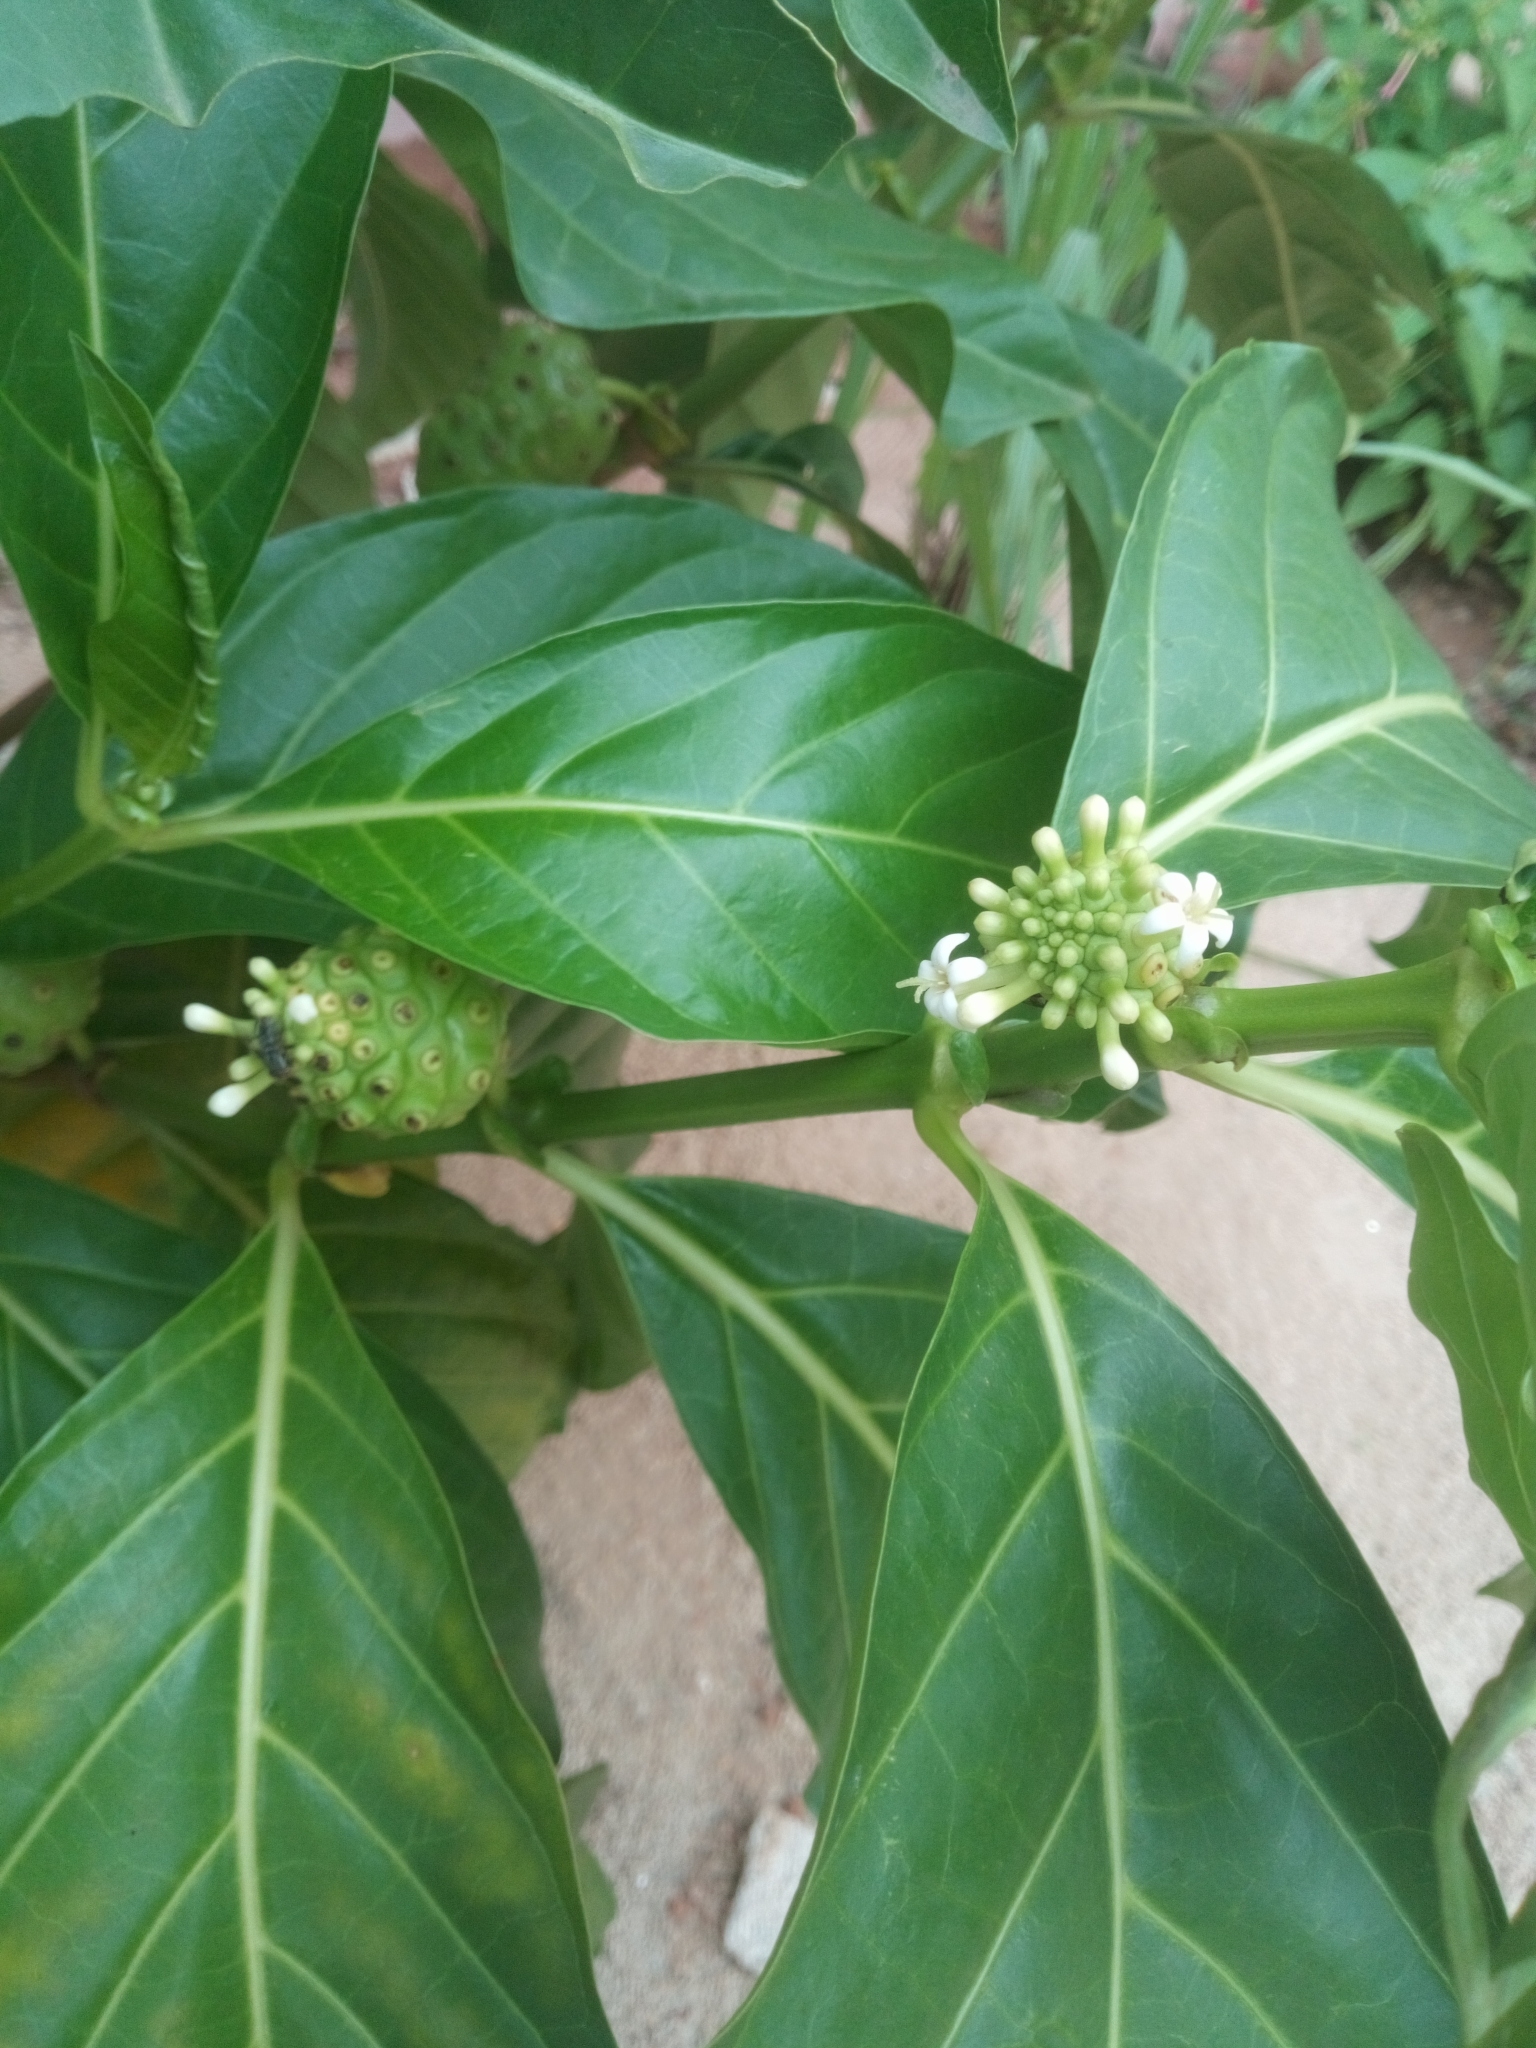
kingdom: Plantae
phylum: Tracheophyta
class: Magnoliopsida
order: Gentianales
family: Rubiaceae
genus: Morinda
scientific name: Morinda citrifolia
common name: Indian-mulberry
